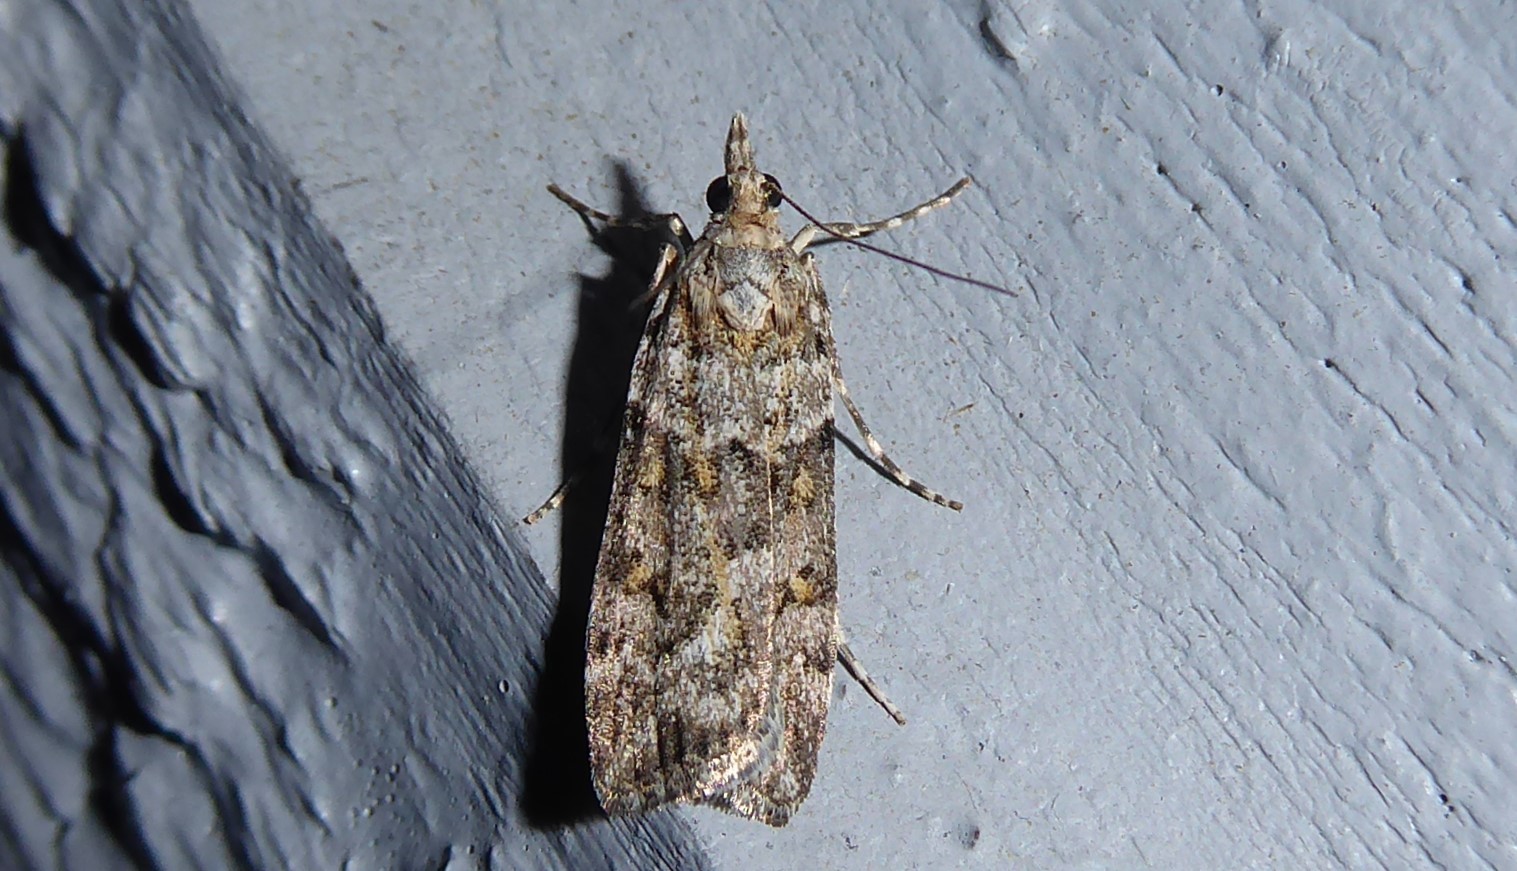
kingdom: Animalia
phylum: Arthropoda
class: Insecta
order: Lepidoptera
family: Crambidae
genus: Eudonia
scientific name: Eudonia diphtheralis
